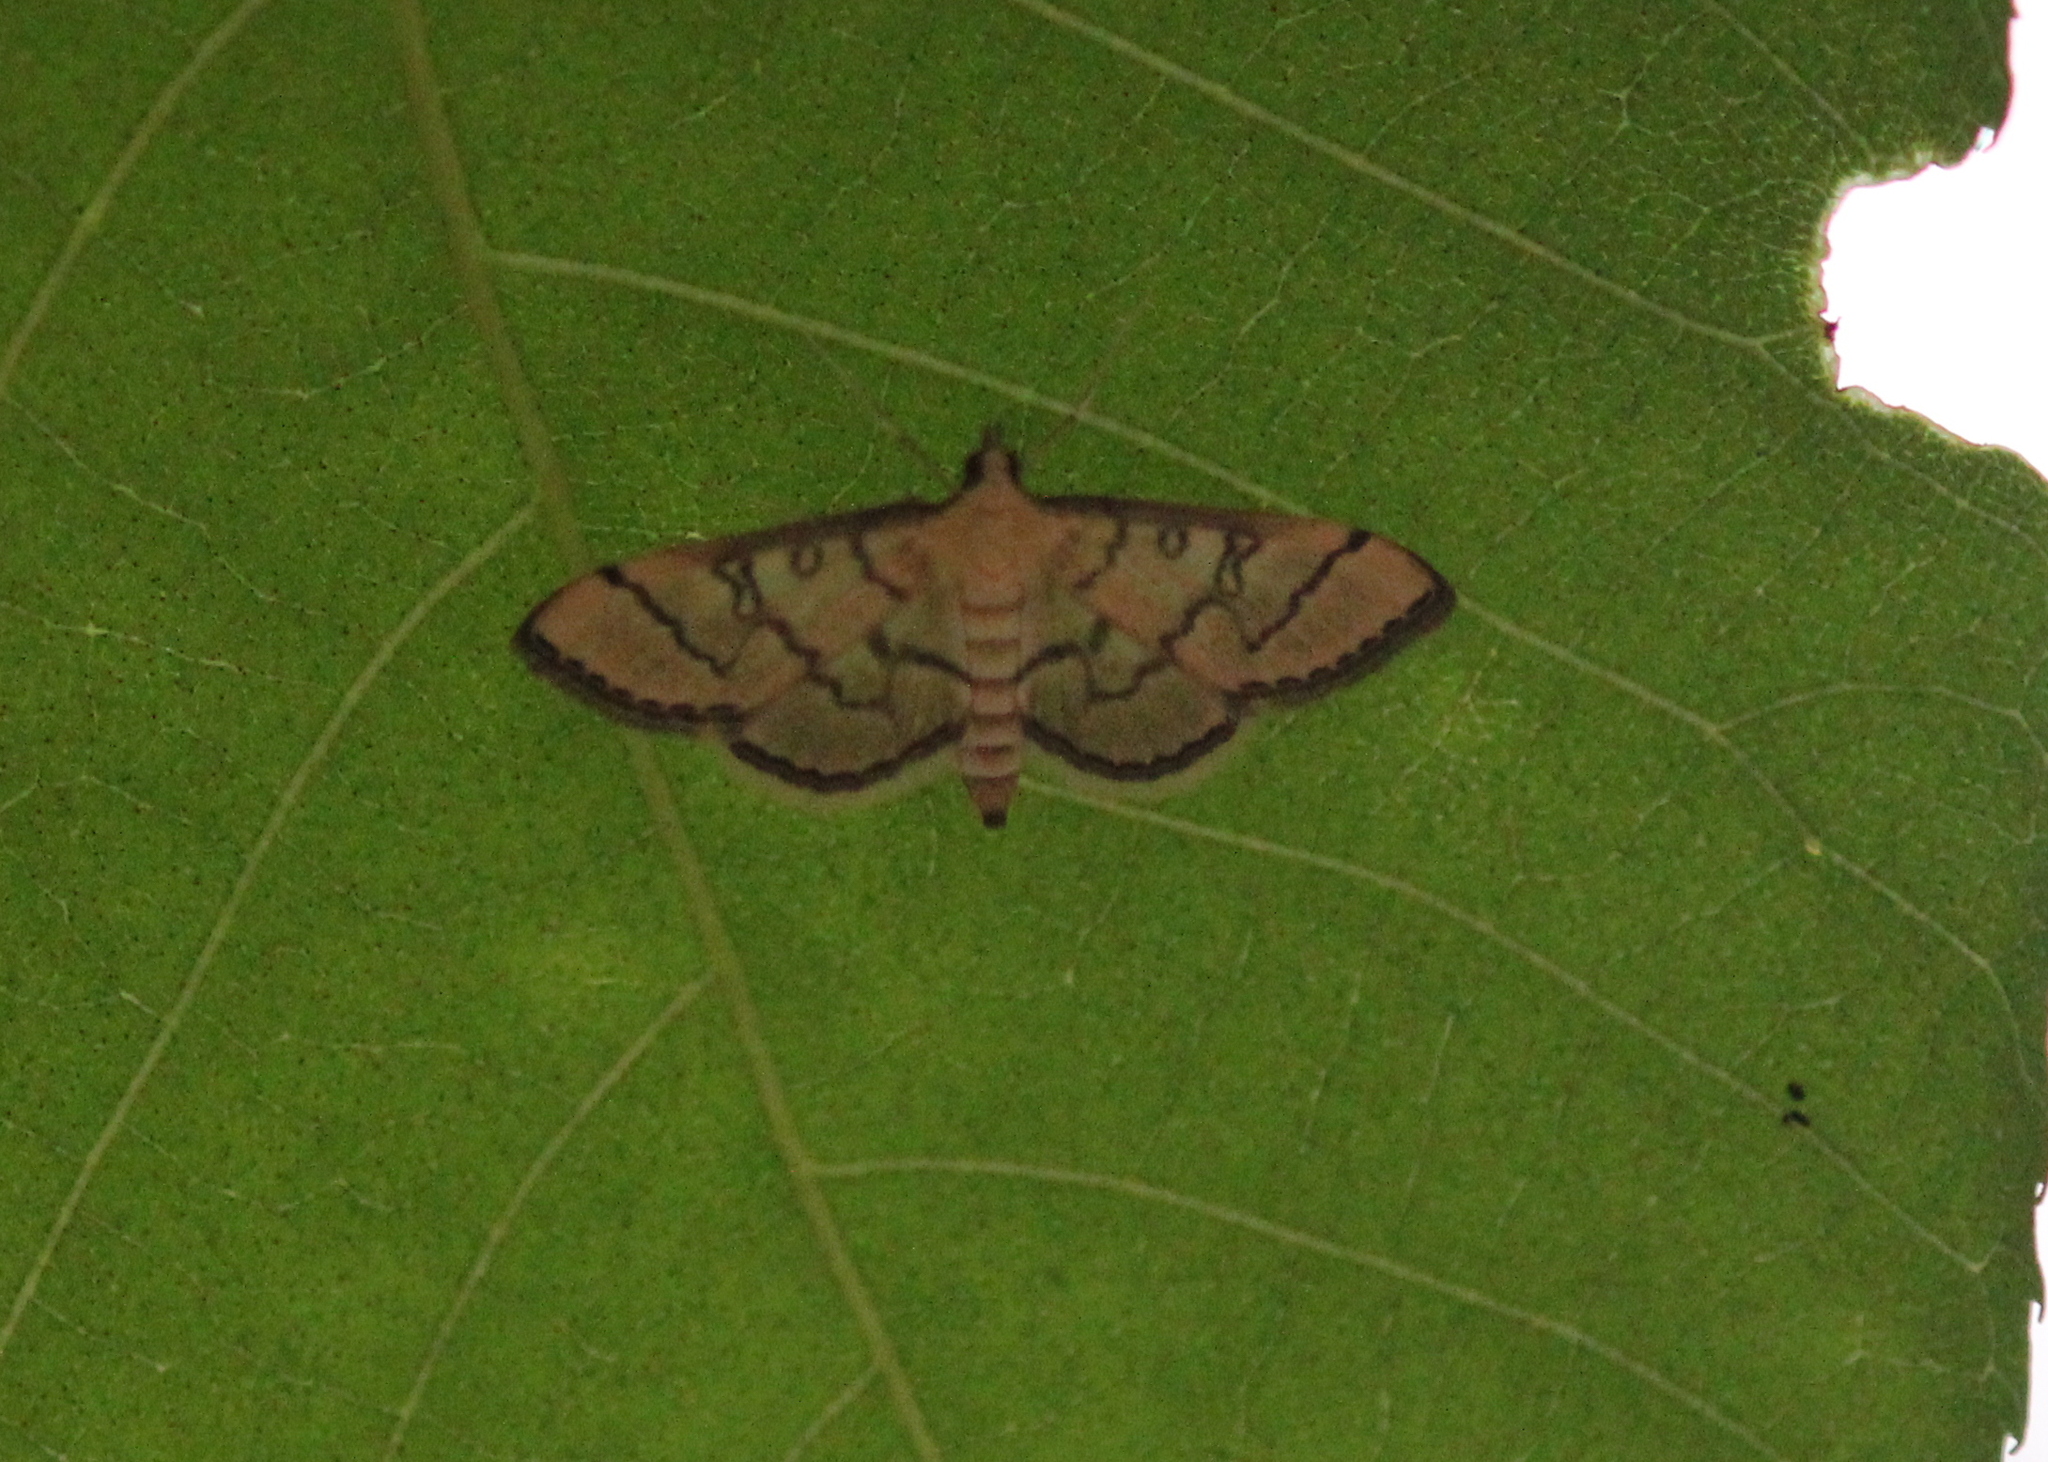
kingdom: Animalia
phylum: Arthropoda
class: Insecta
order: Lepidoptera
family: Crambidae
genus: Lamprosema
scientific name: Lamprosema Blepharomastix ranalis
